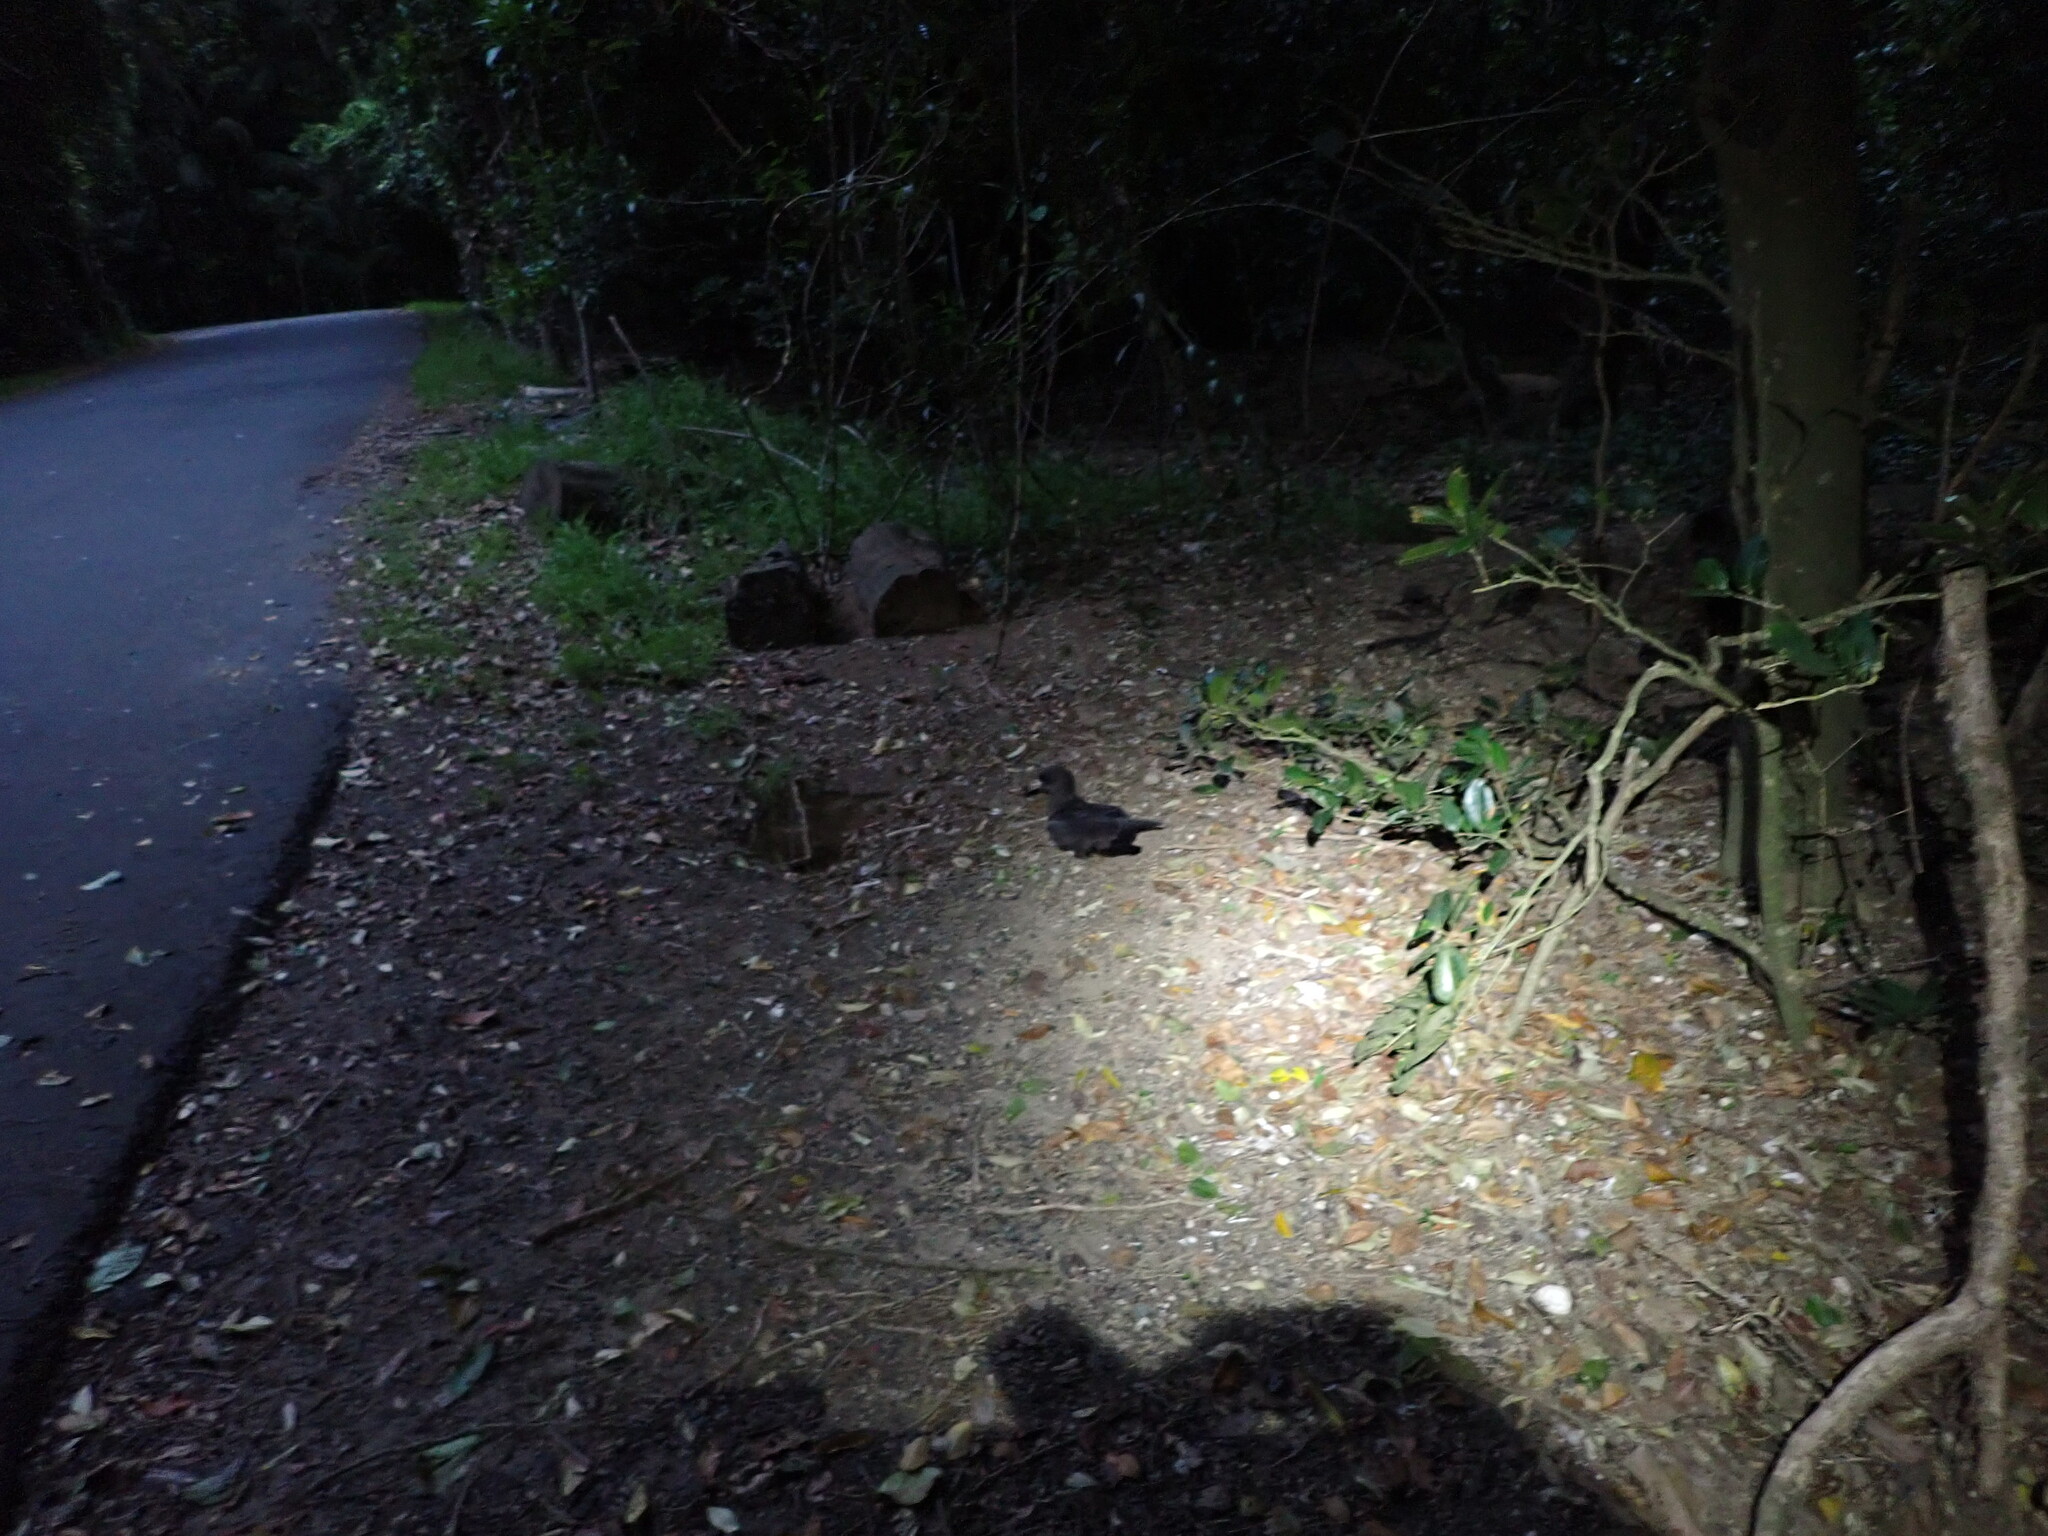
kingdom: Animalia
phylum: Chordata
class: Aves
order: Procellariiformes
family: Procellariidae
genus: Puffinus
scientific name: Puffinus carneipes
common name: Flesh-footed shearwater
